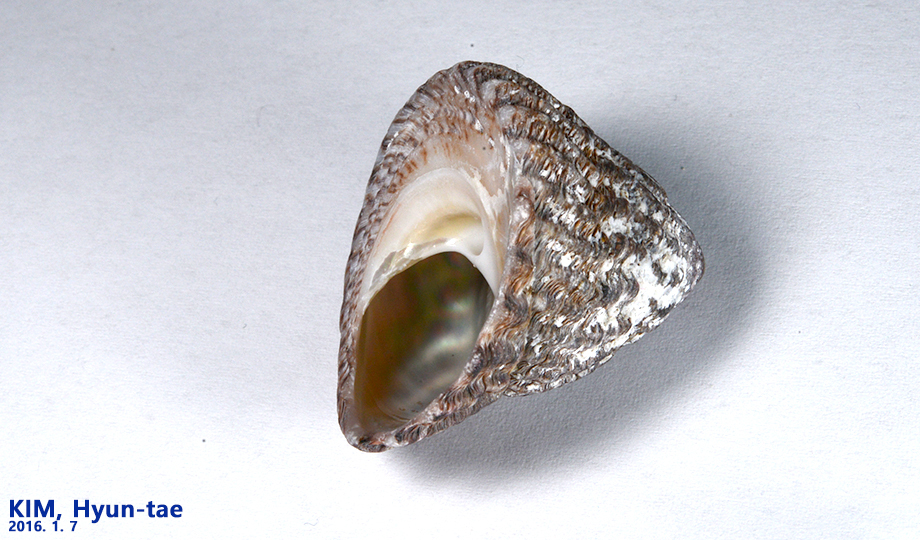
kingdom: Animalia
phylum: Mollusca
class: Gastropoda
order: Trochida
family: Tegulidae
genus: Tegula
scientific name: Tegula pfeifferi
